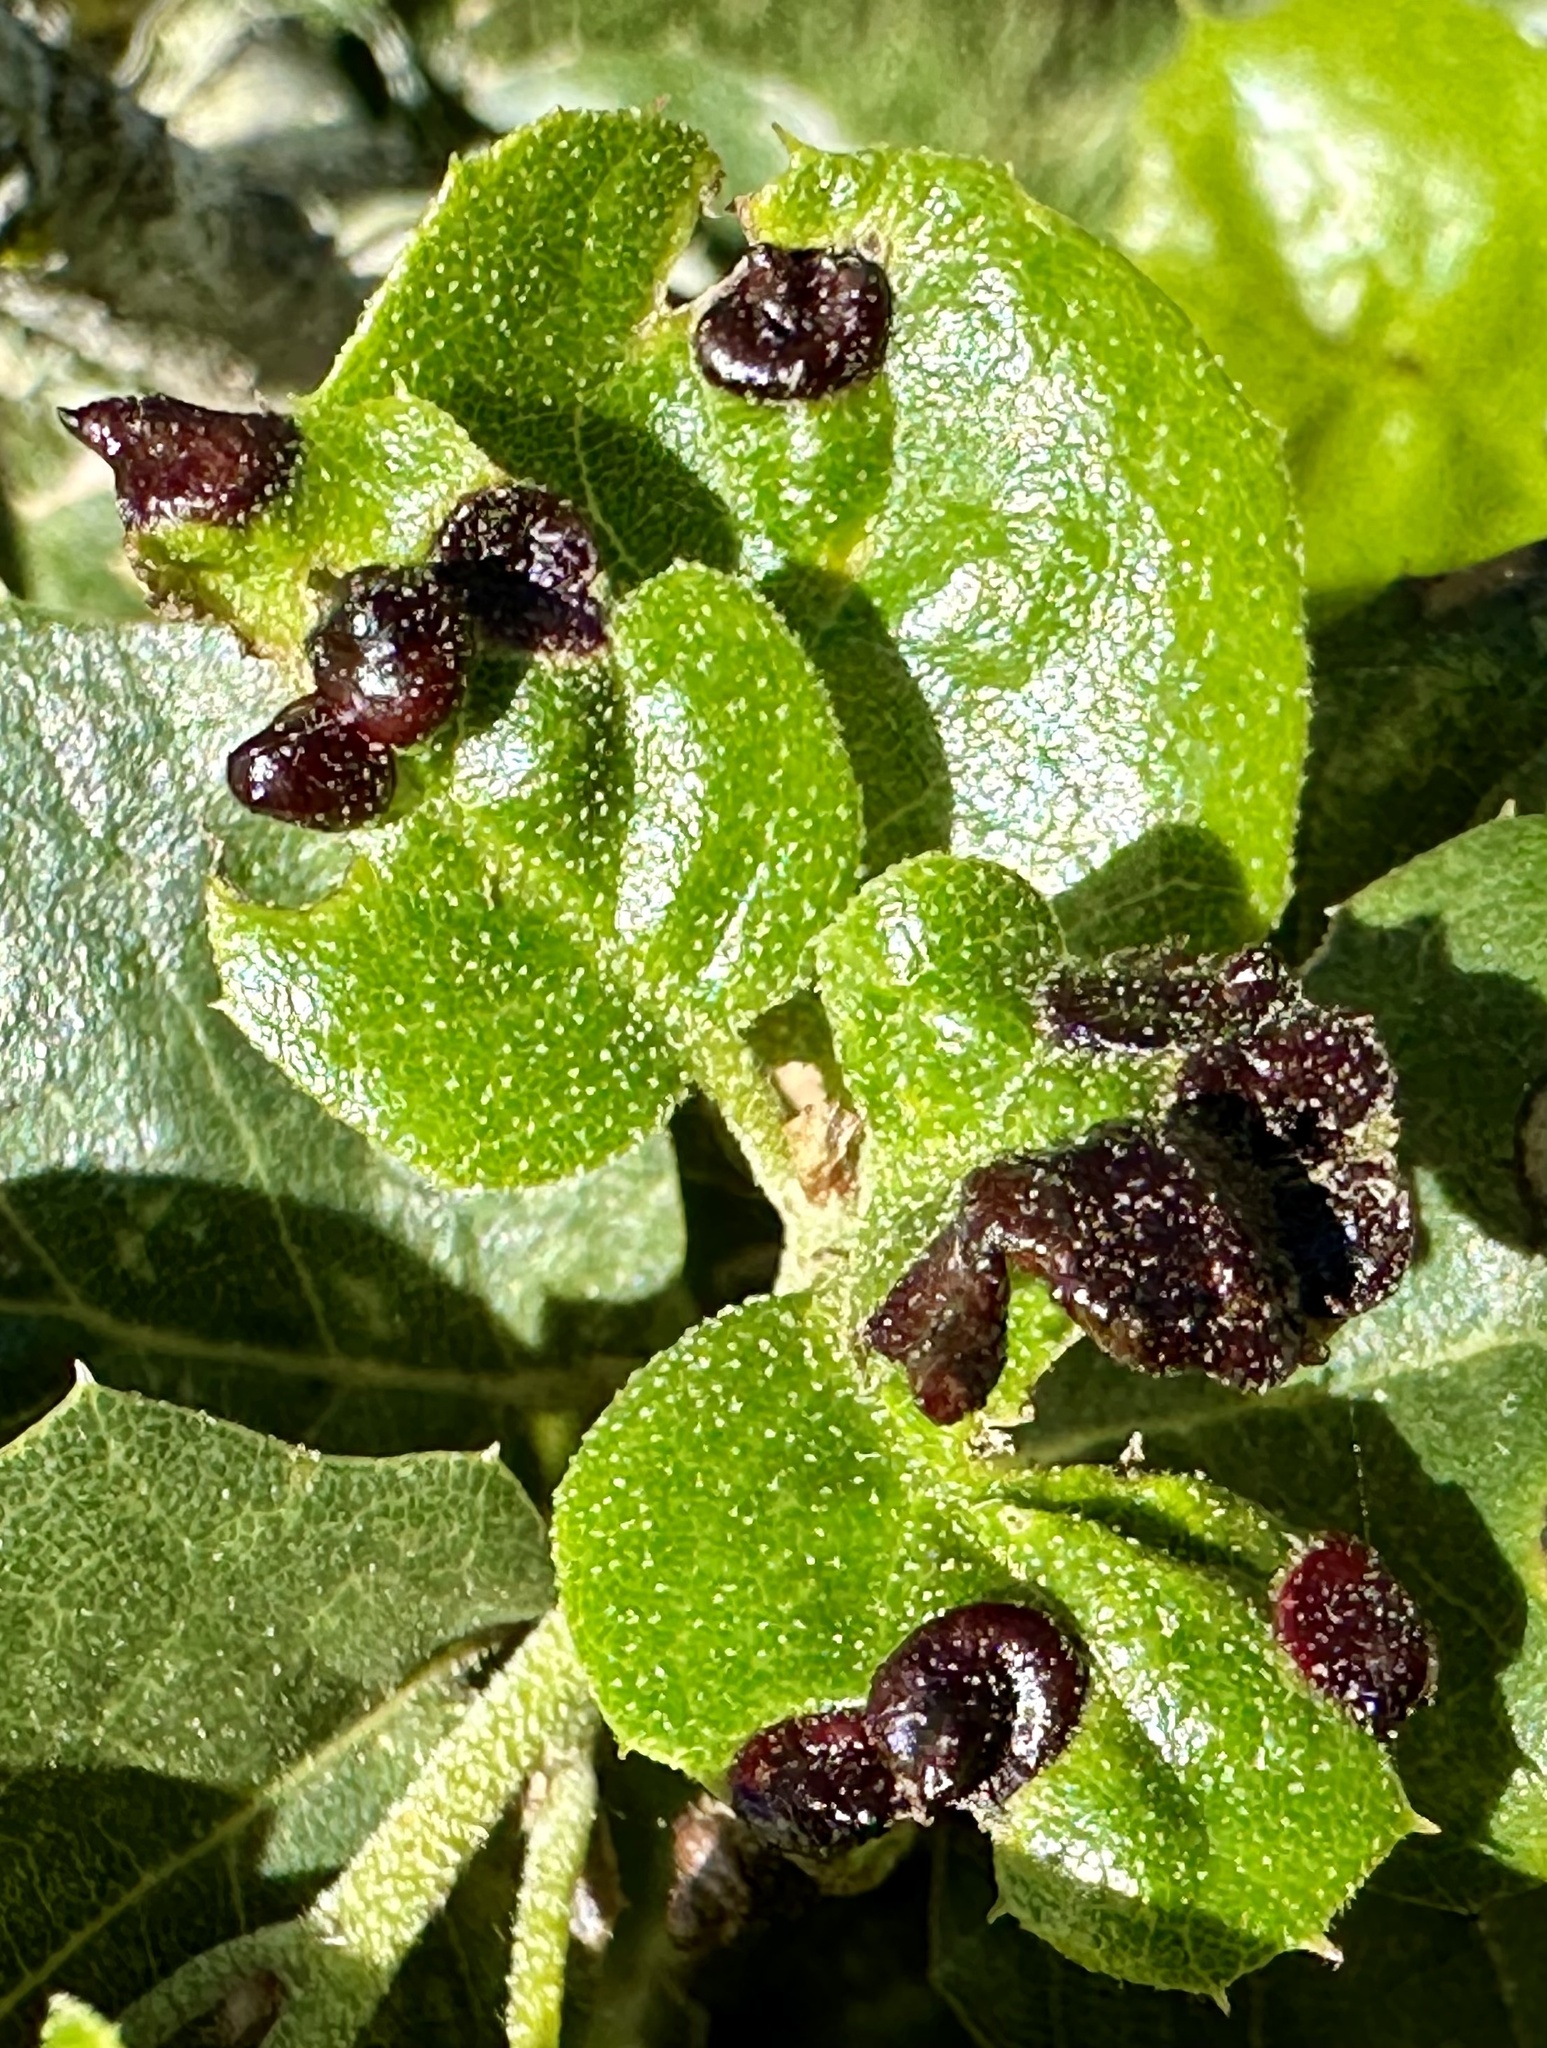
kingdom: Animalia
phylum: Arthropoda
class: Insecta
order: Hymenoptera
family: Cynipidae
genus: Dryocosmus
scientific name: Dryocosmus
